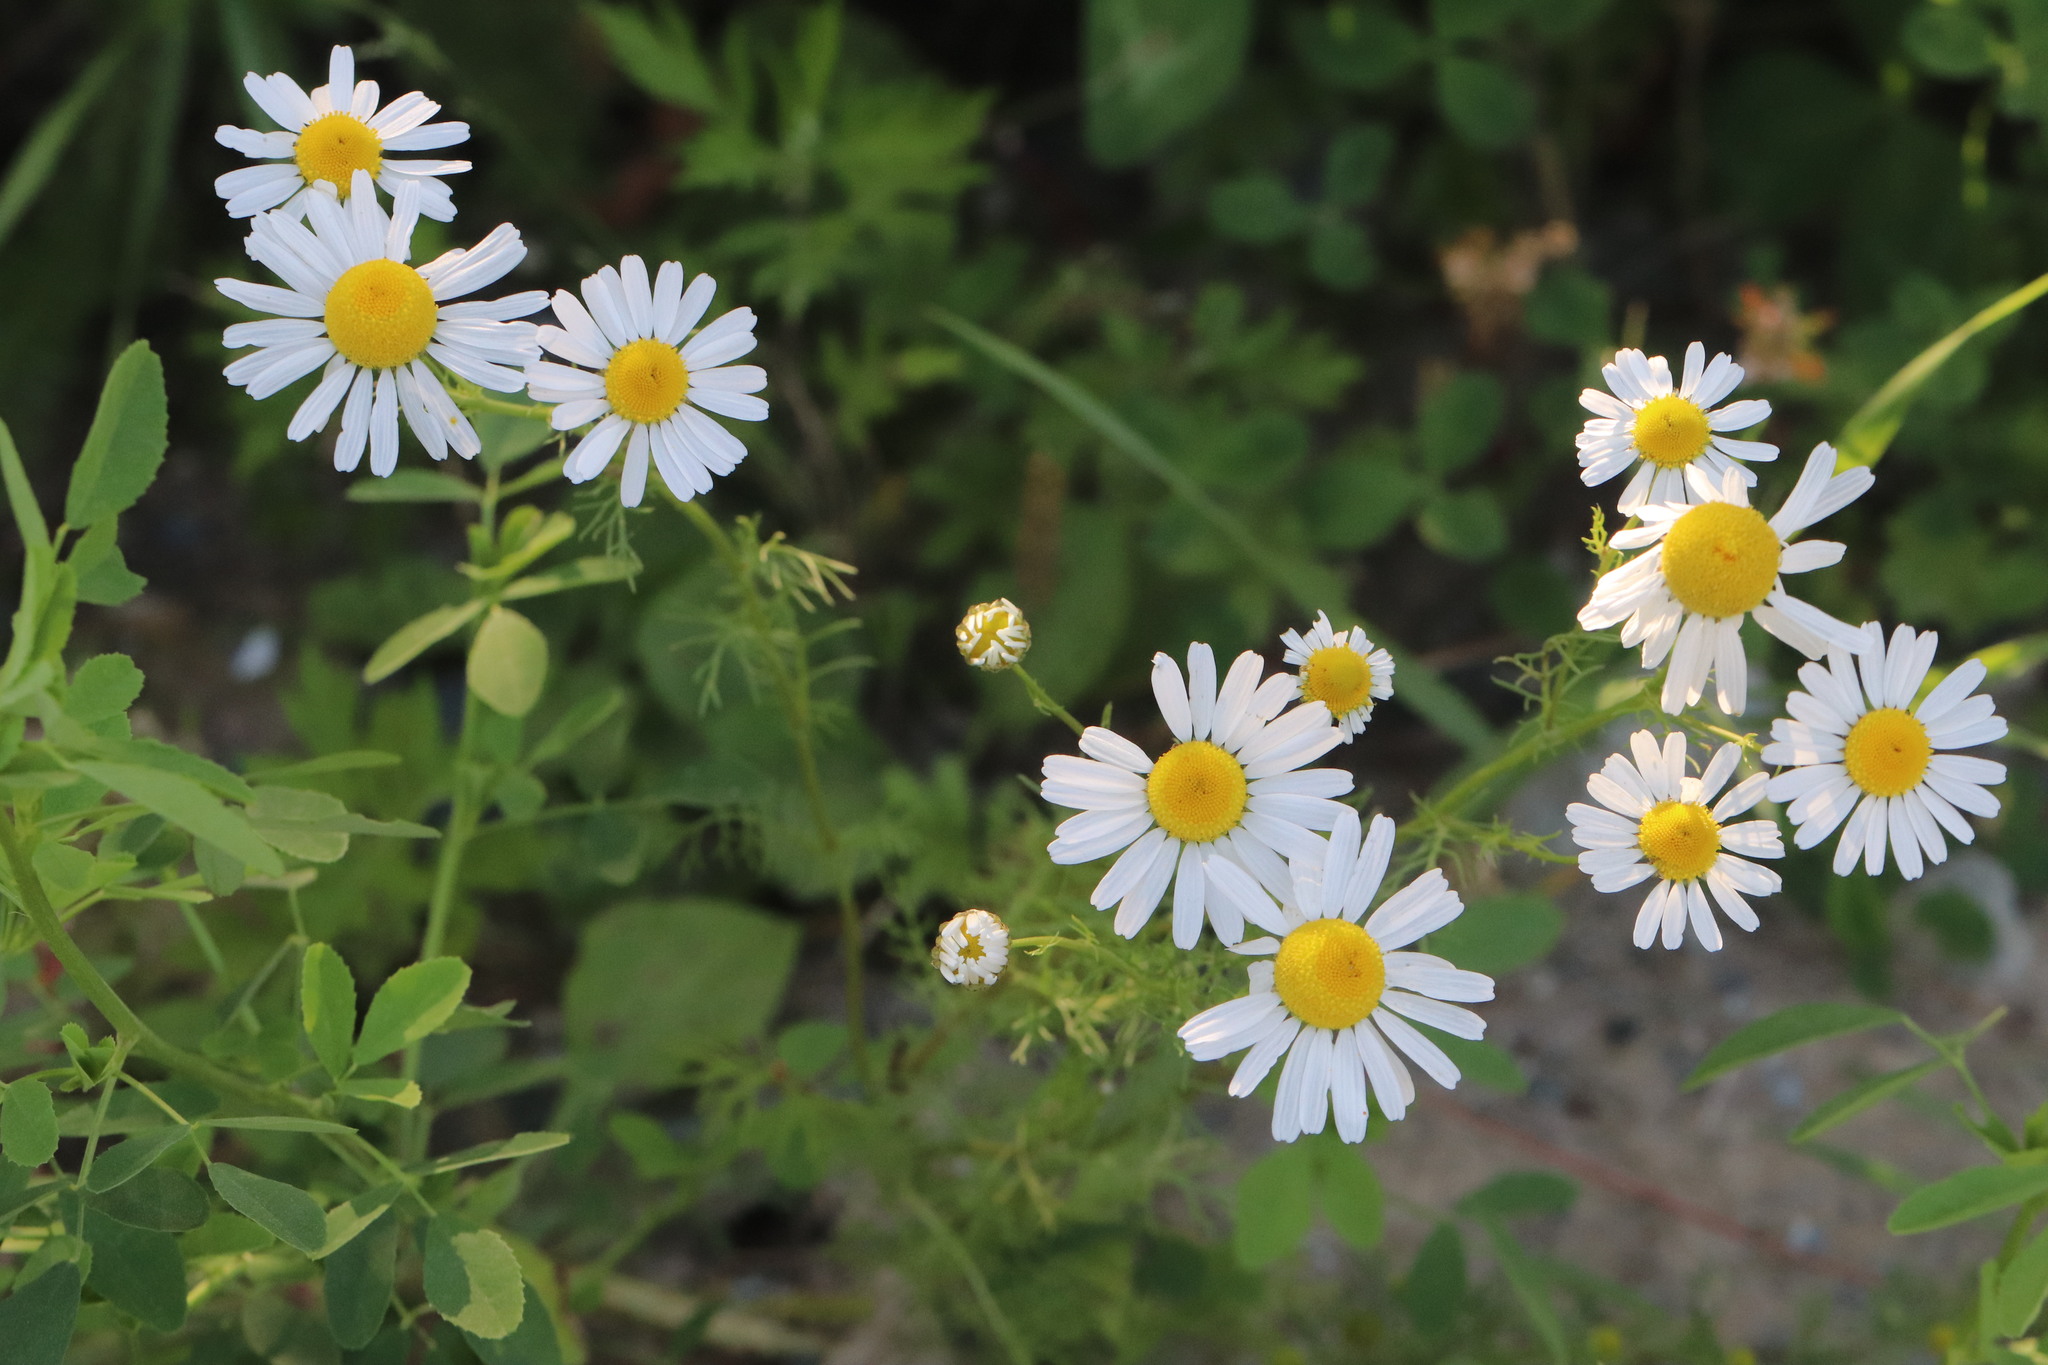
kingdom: Plantae
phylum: Tracheophyta
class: Magnoliopsida
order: Asterales
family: Asteraceae
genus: Tripleurospermum
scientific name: Tripleurospermum inodorum
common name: Scentless mayweed
